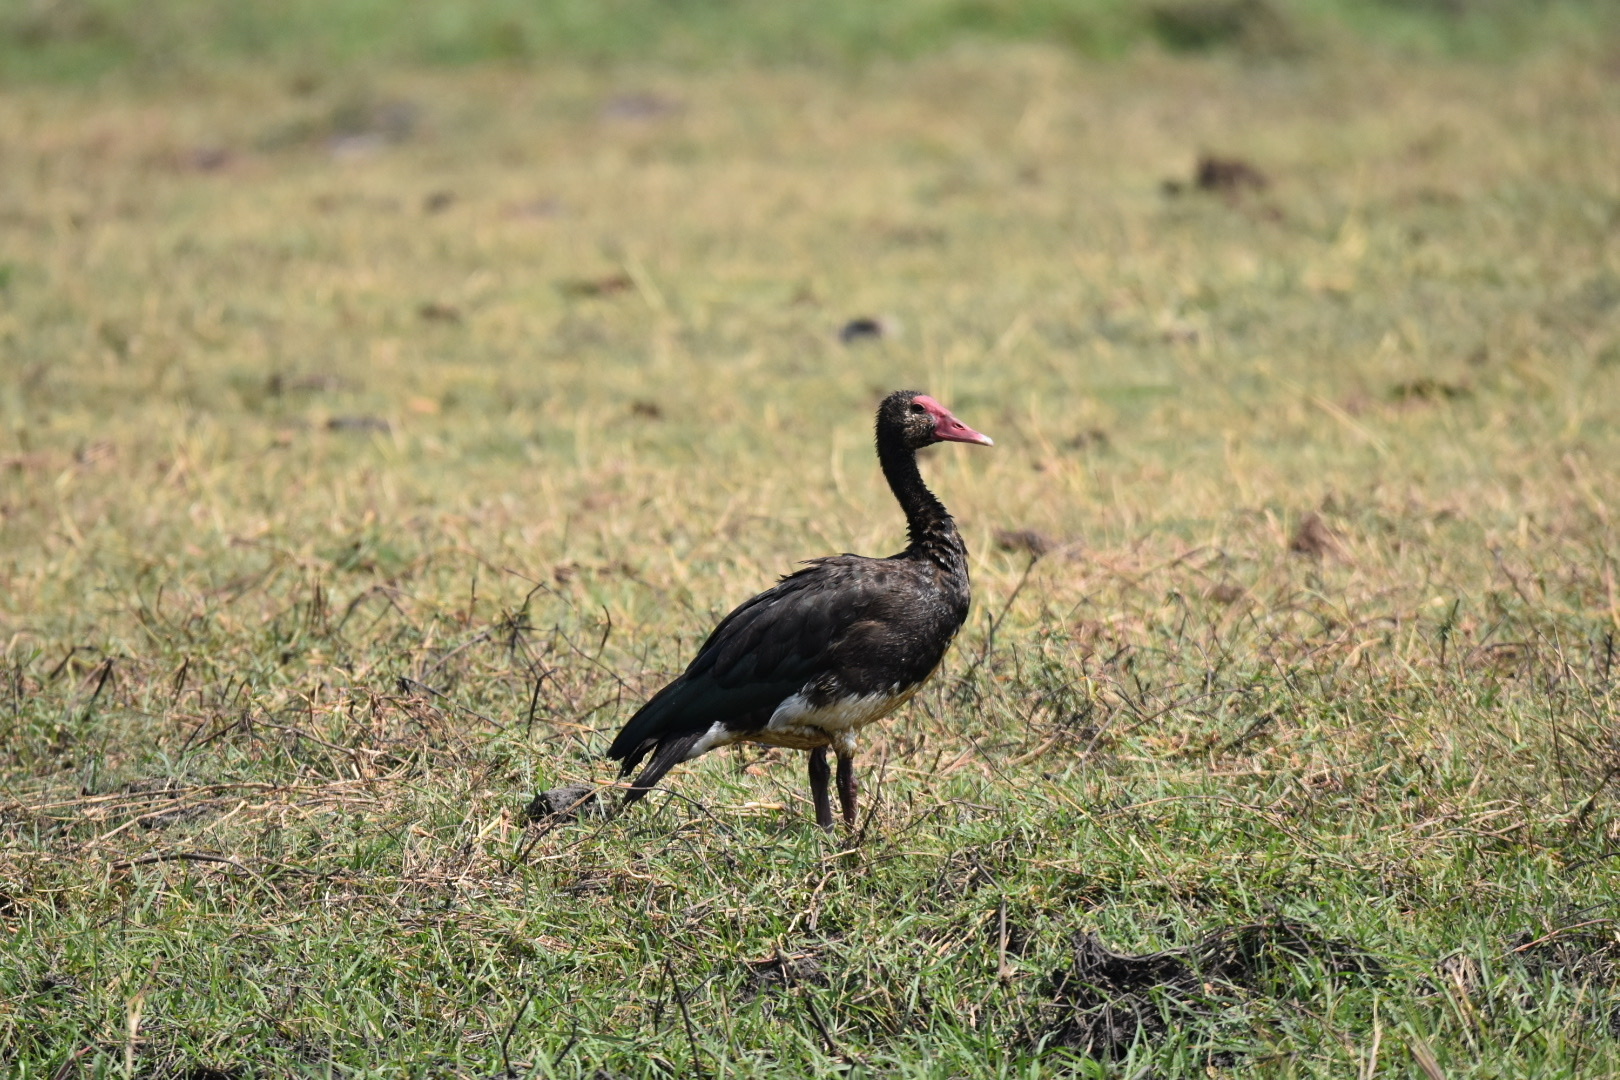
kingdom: Animalia
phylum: Chordata
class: Aves
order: Anseriformes
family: Anatidae
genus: Plectropterus
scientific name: Plectropterus gambensis
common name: Spur-winged goose
